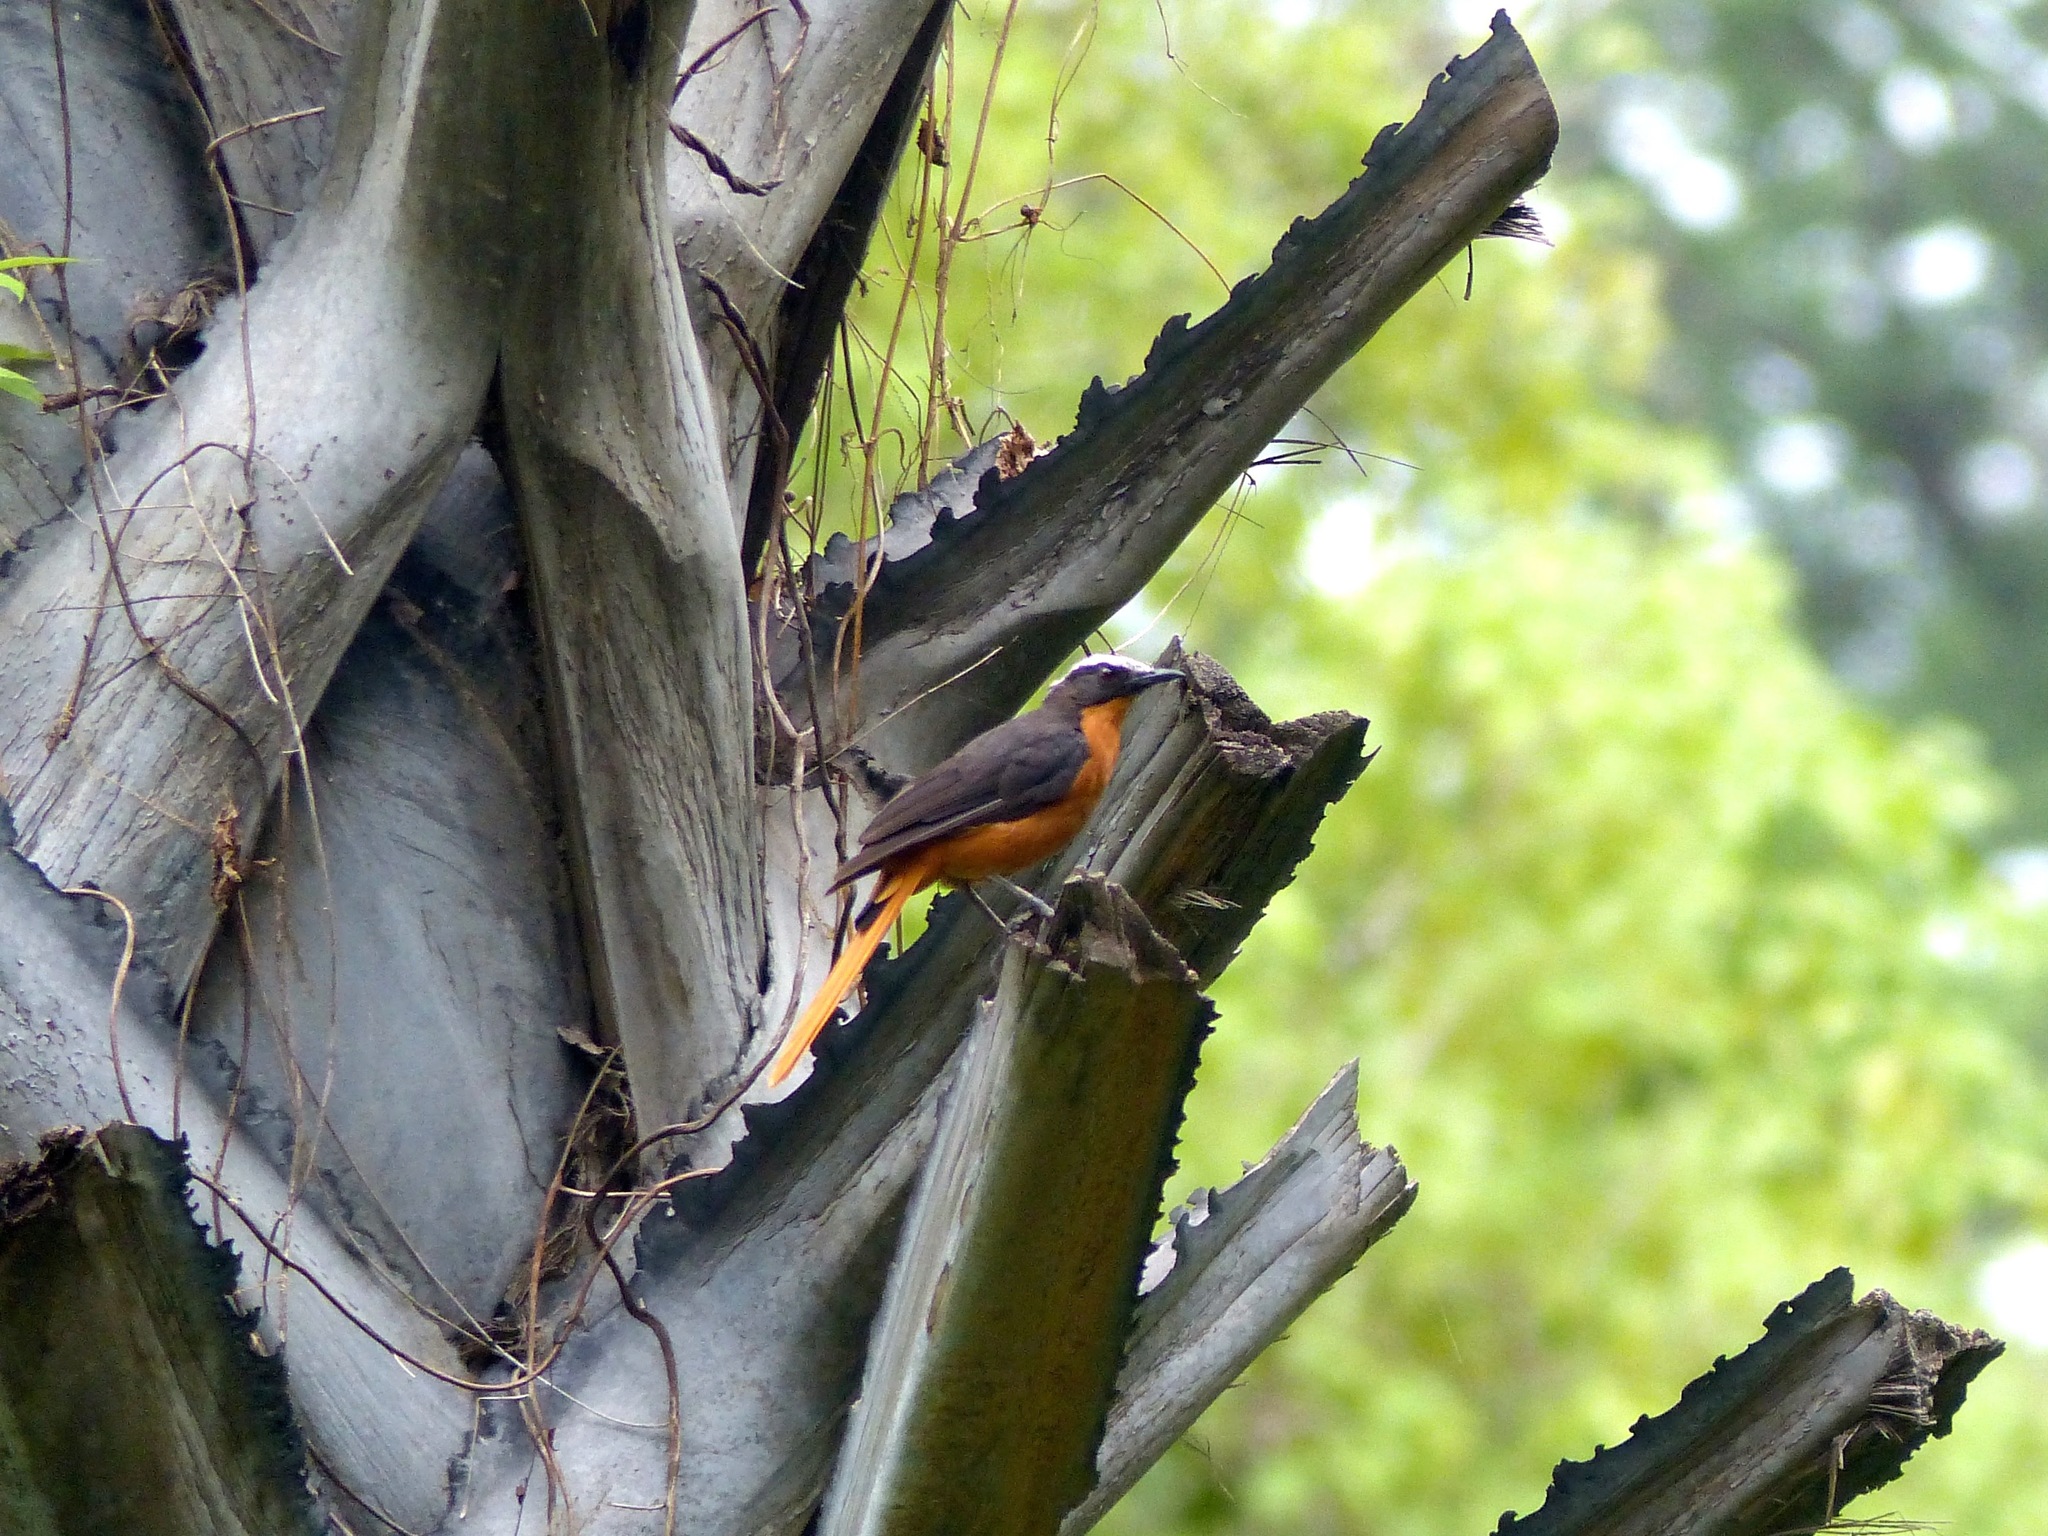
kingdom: Animalia
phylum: Chordata
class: Aves
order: Passeriformes
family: Muscicapidae
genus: Cossypha
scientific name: Cossypha albicapillus
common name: White-crowned robin-chat
